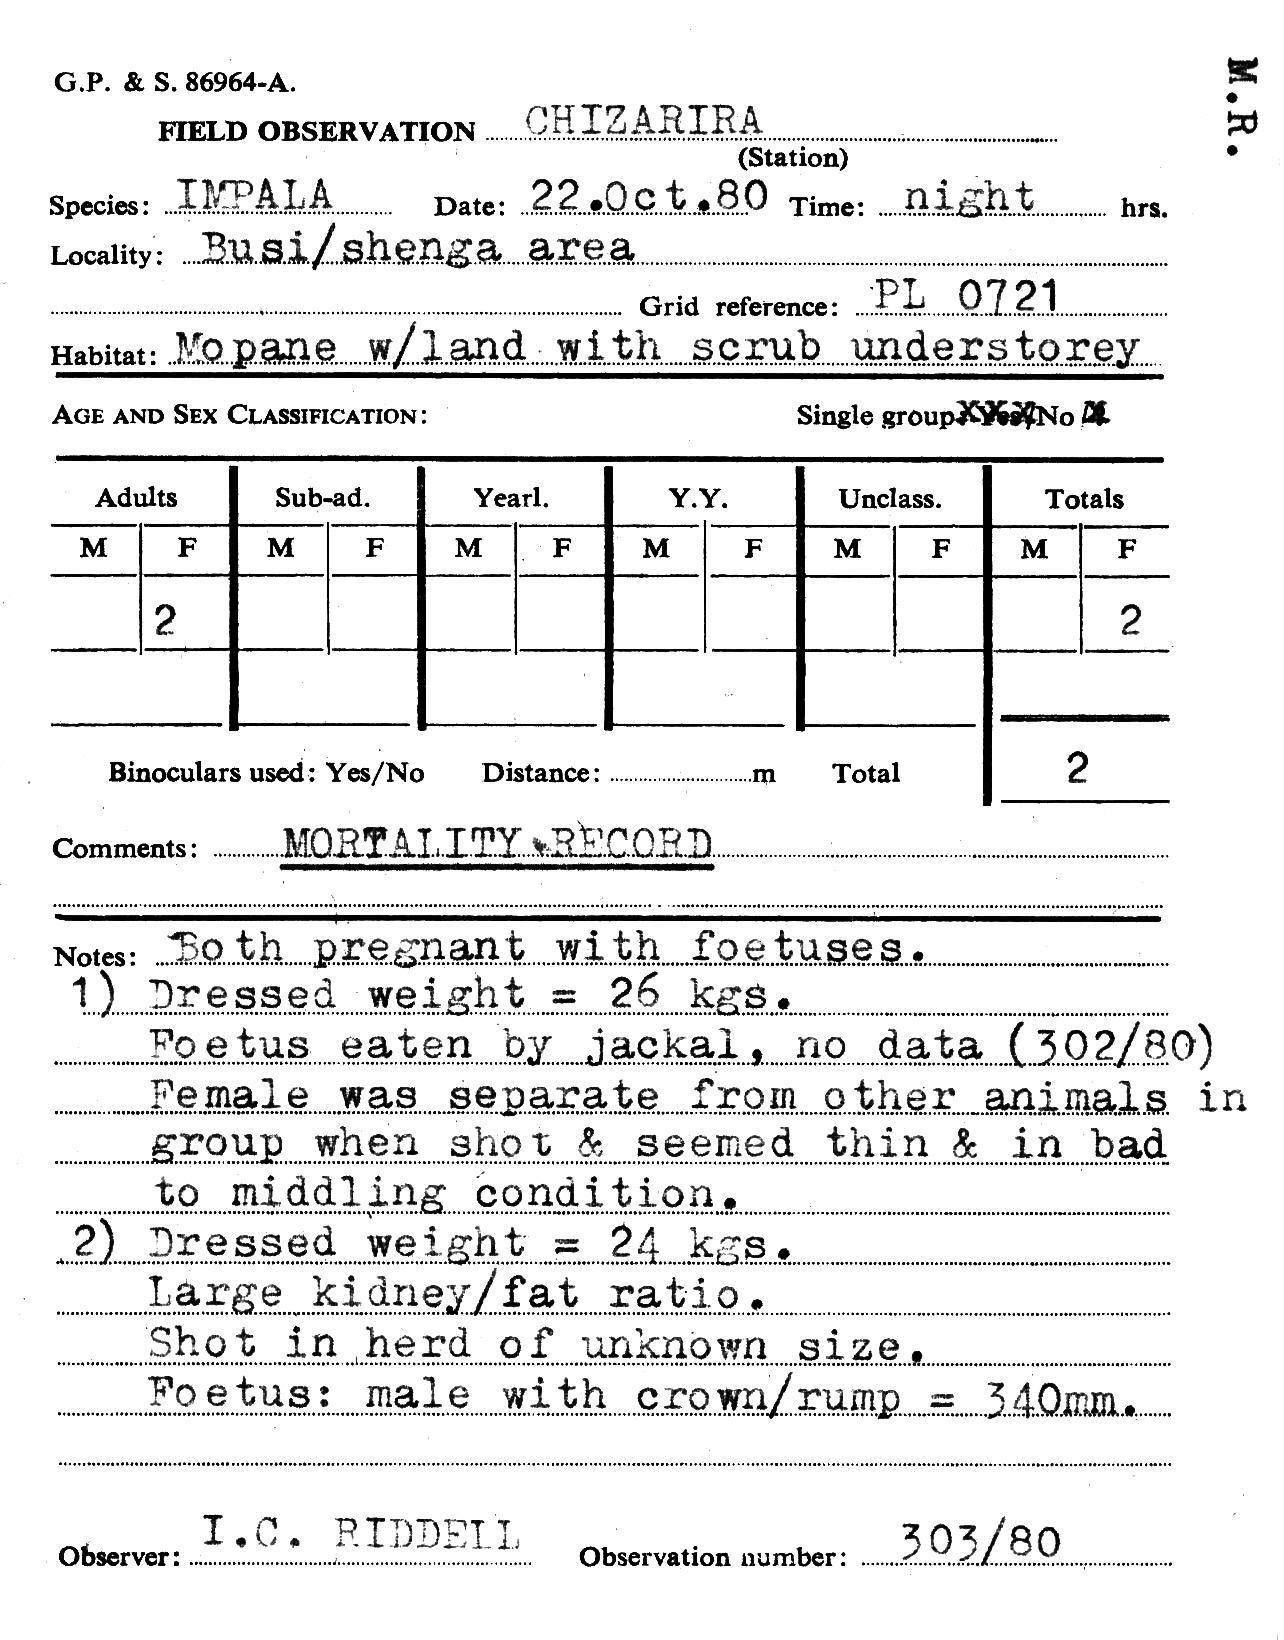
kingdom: Animalia
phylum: Chordata
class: Mammalia
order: Artiodactyla
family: Bovidae
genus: Aepyceros
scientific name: Aepyceros melampus
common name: Impala
